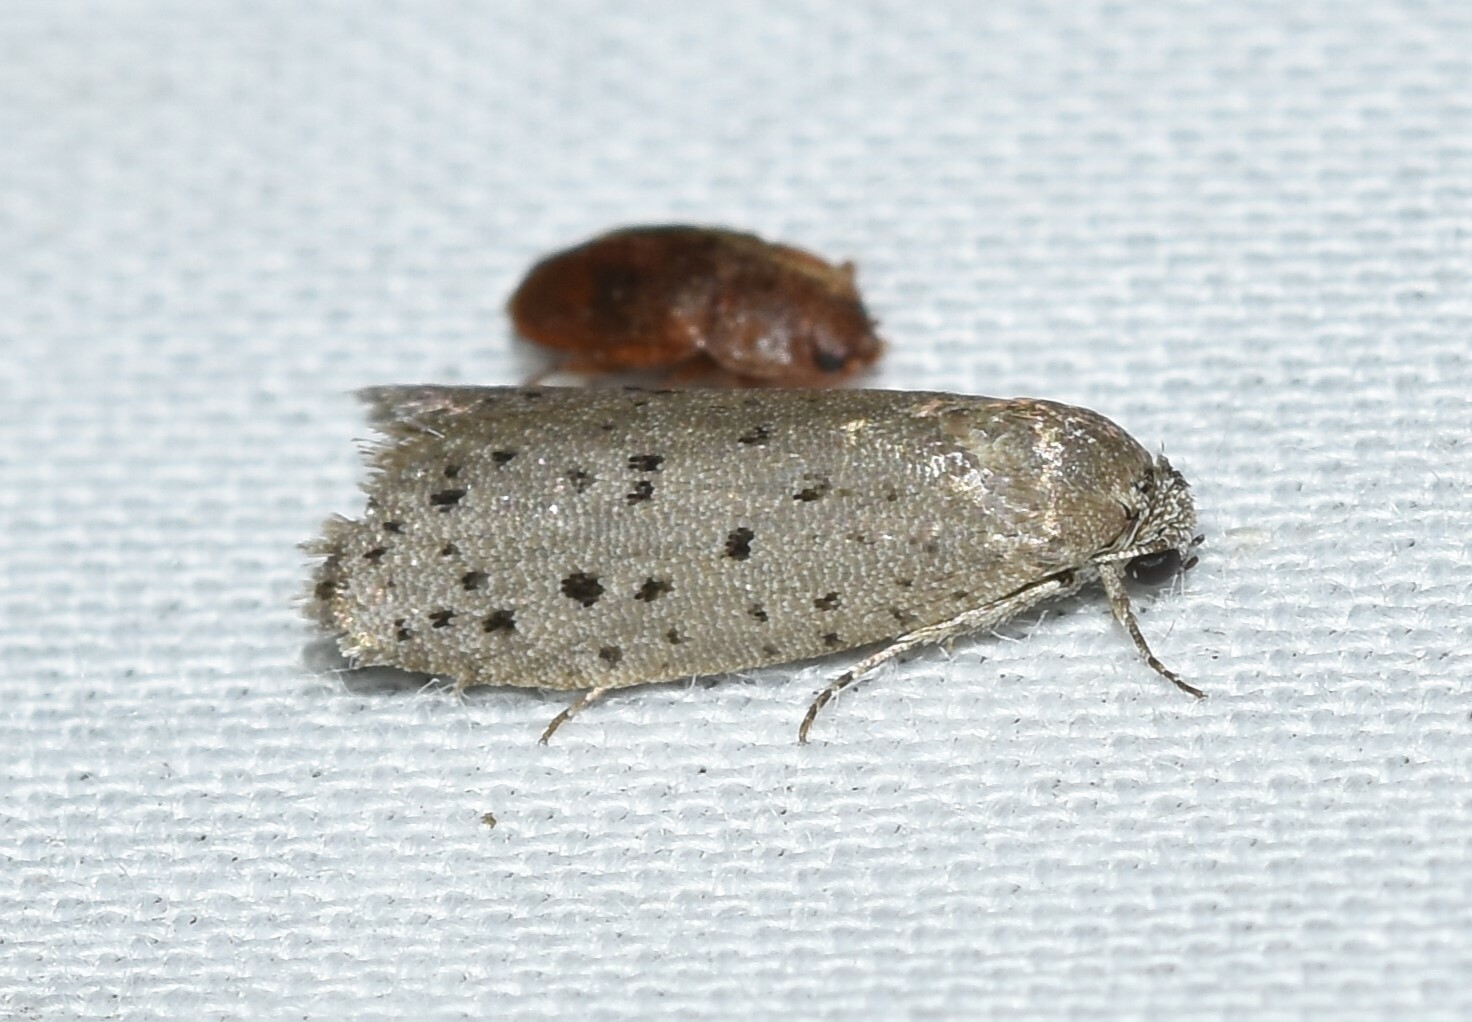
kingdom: Animalia
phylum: Arthropoda
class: Insecta
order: Lepidoptera
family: Galacticidae
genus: Homadaula
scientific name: Homadaula anisocentra
